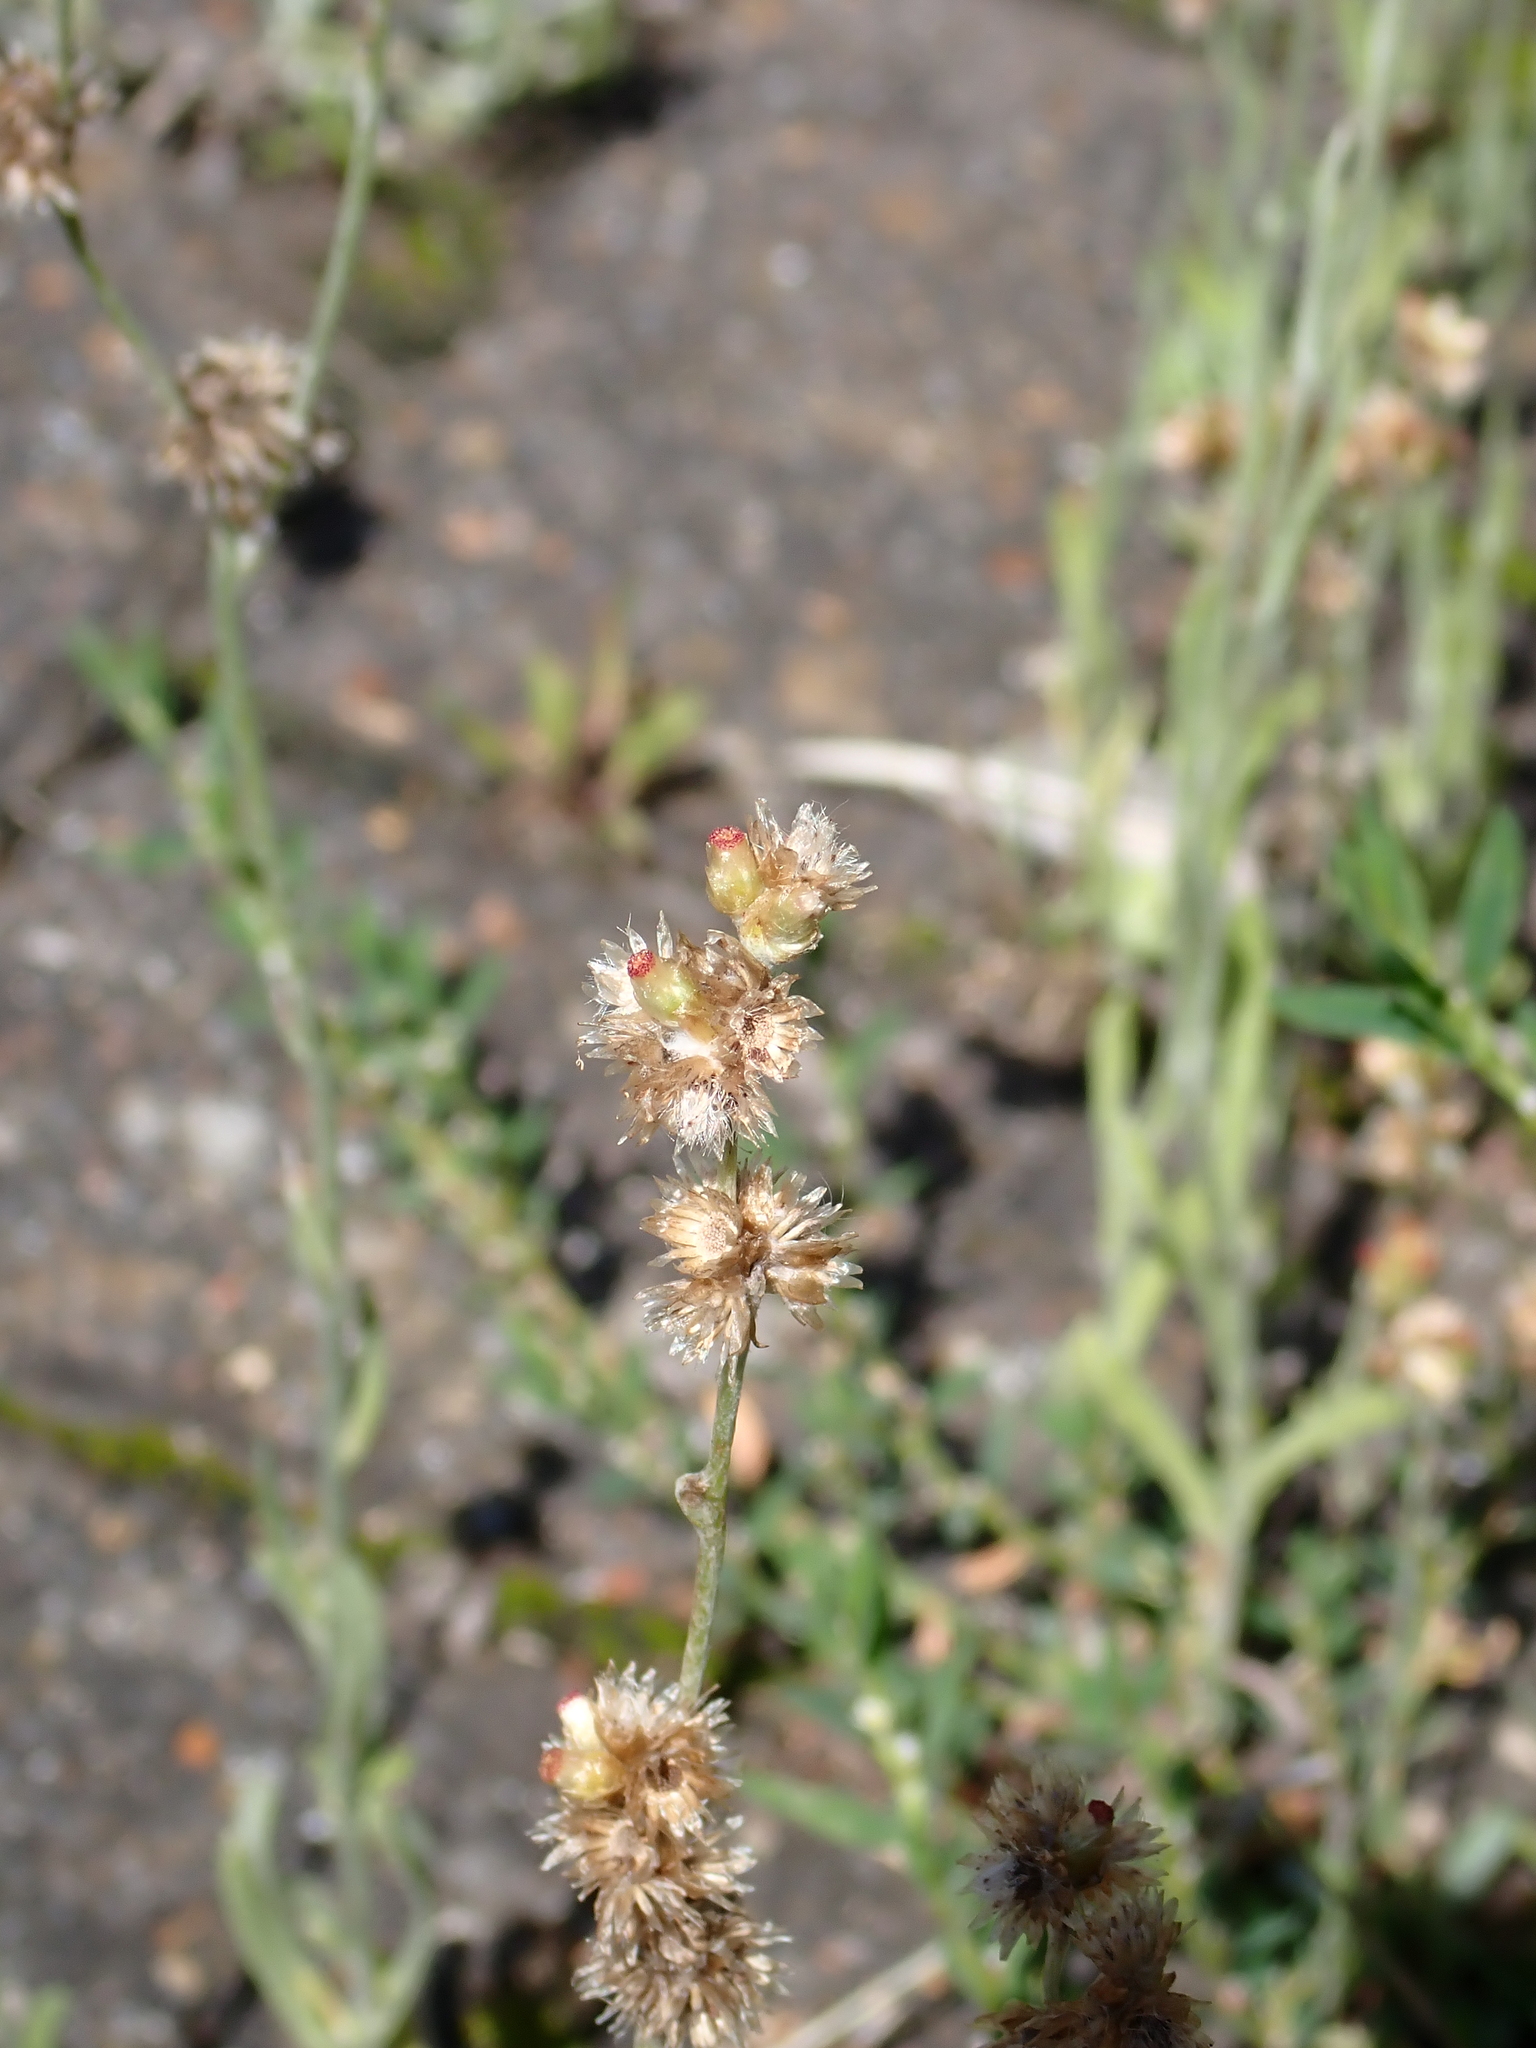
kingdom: Plantae
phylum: Tracheophyta
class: Magnoliopsida
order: Asterales
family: Asteraceae
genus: Helichrysum
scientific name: Helichrysum luteoalbum
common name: Daisy
